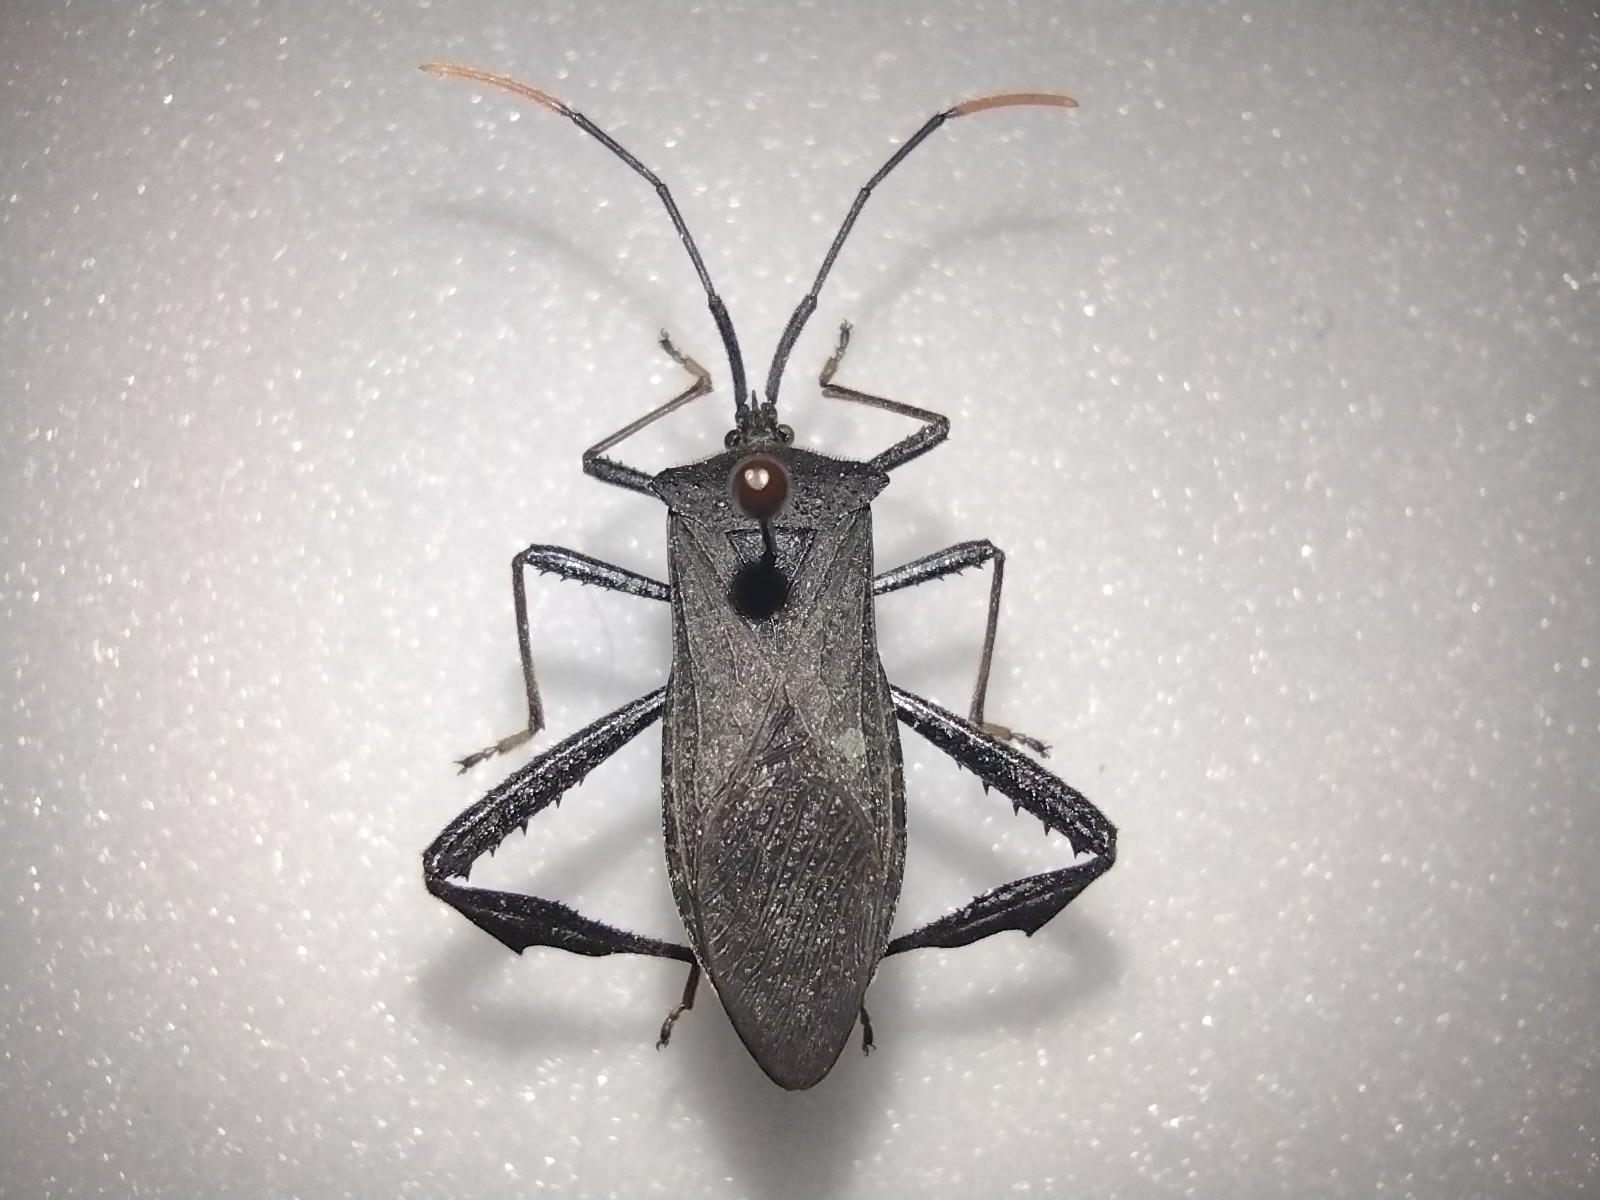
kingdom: Animalia
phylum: Arthropoda
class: Insecta
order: Hemiptera
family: Coreidae
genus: Acanthocephala
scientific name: Acanthocephala terminalis
